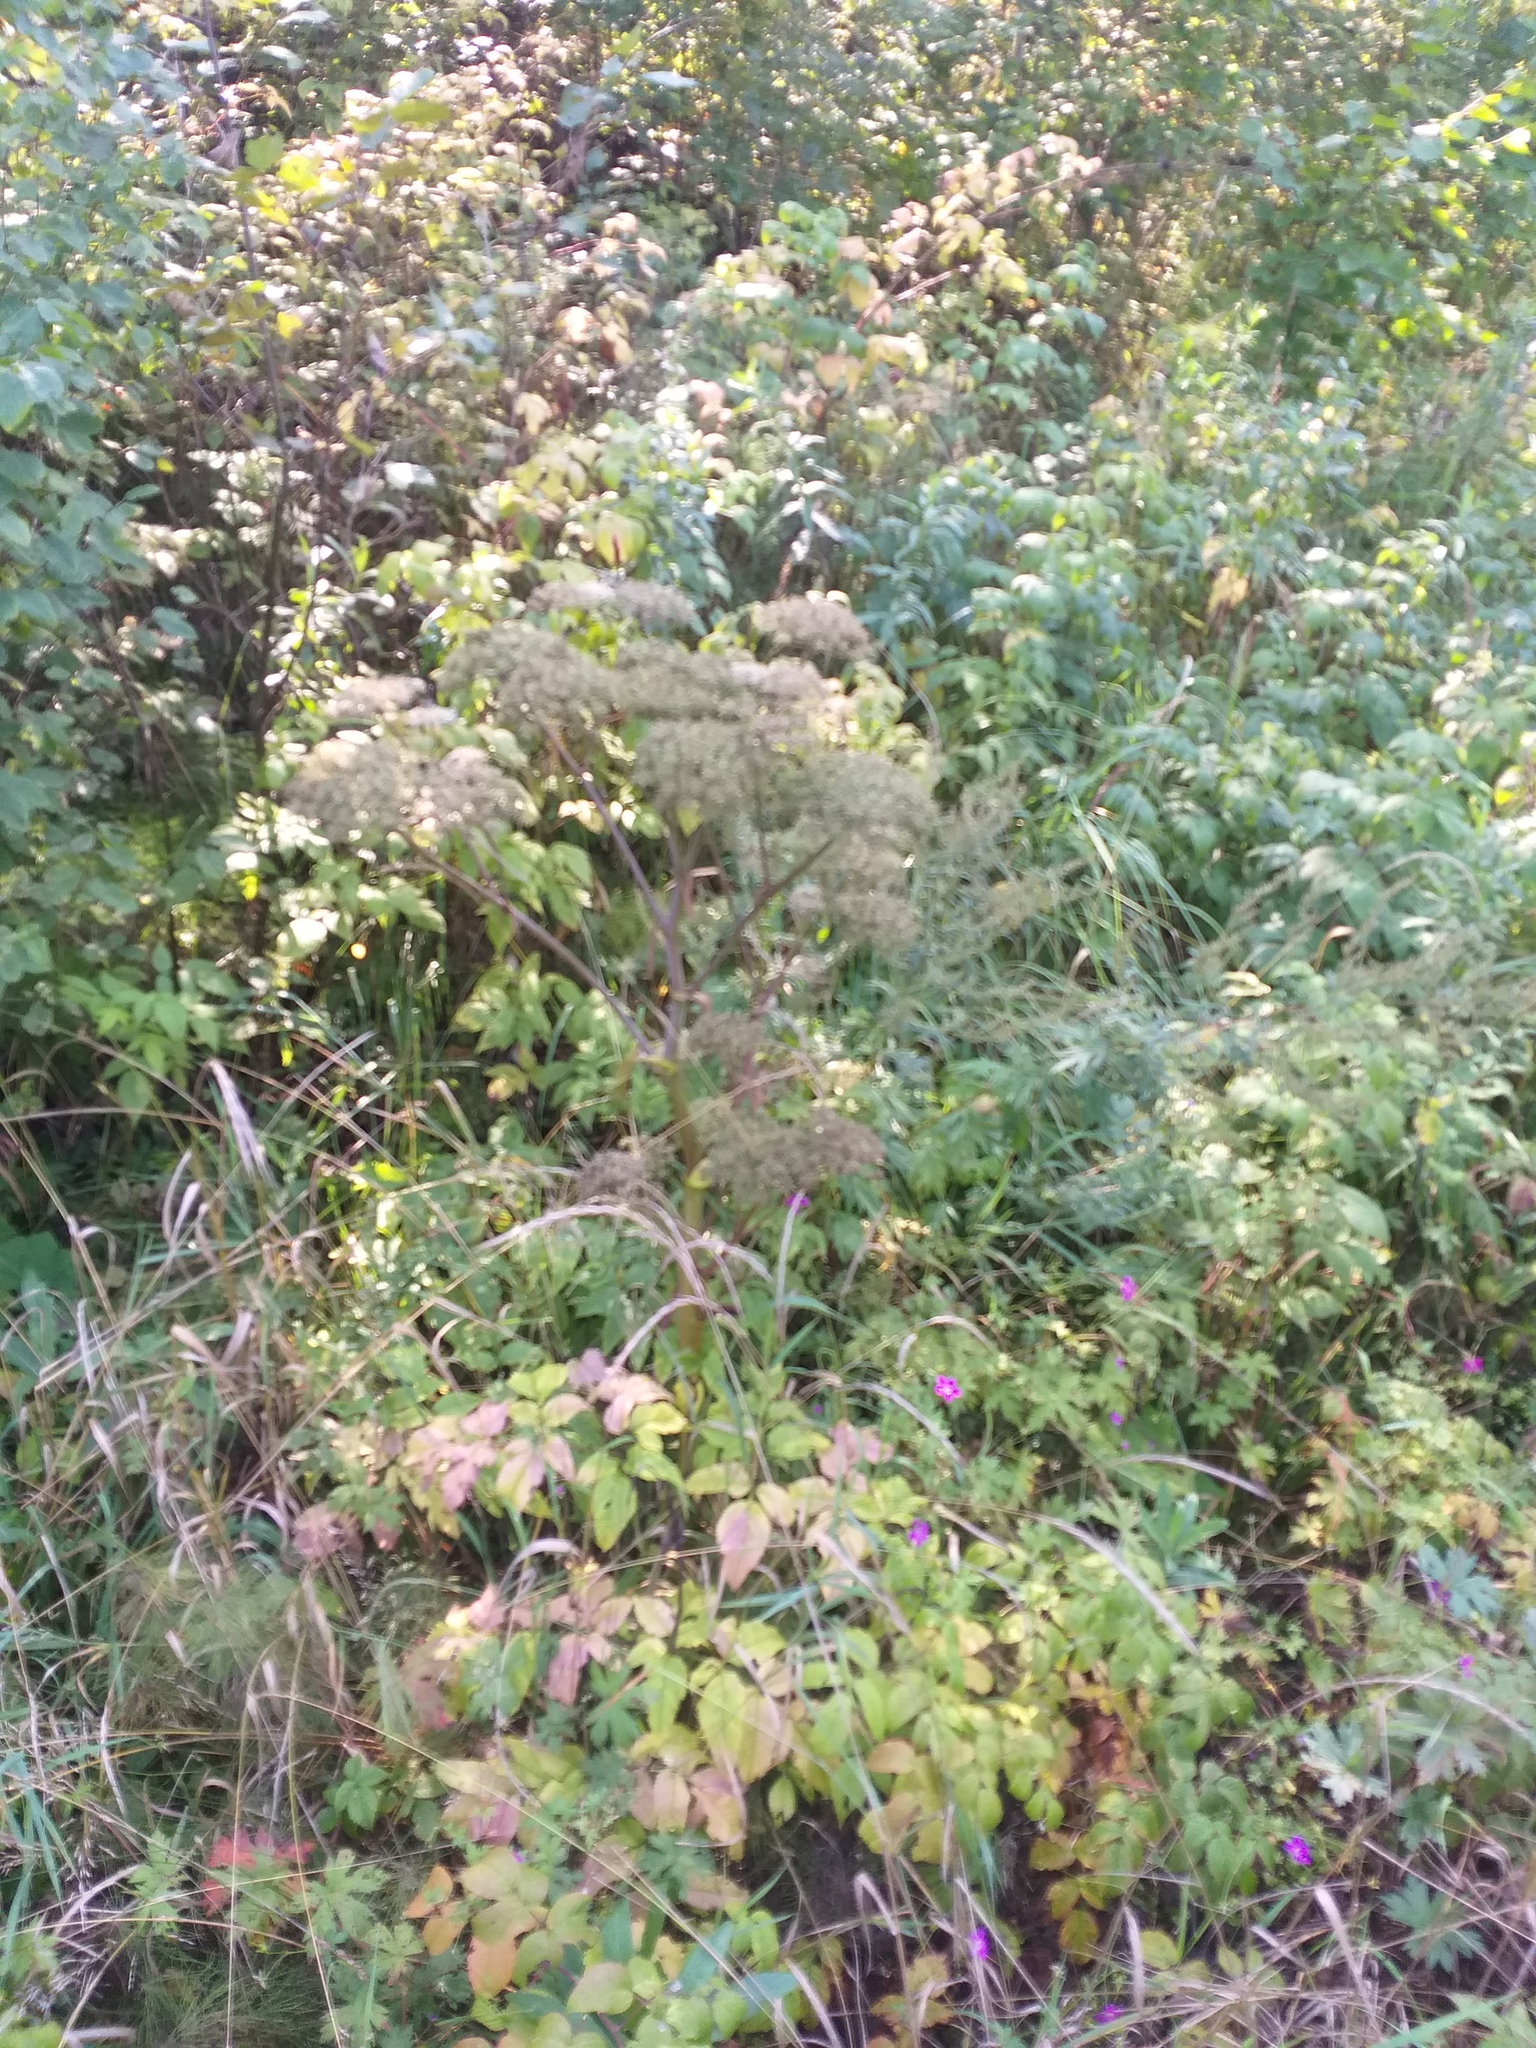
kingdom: Plantae
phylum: Tracheophyta
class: Magnoliopsida
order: Apiales
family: Apiaceae
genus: Angelica
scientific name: Angelica sylvestris
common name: Wild angelica
